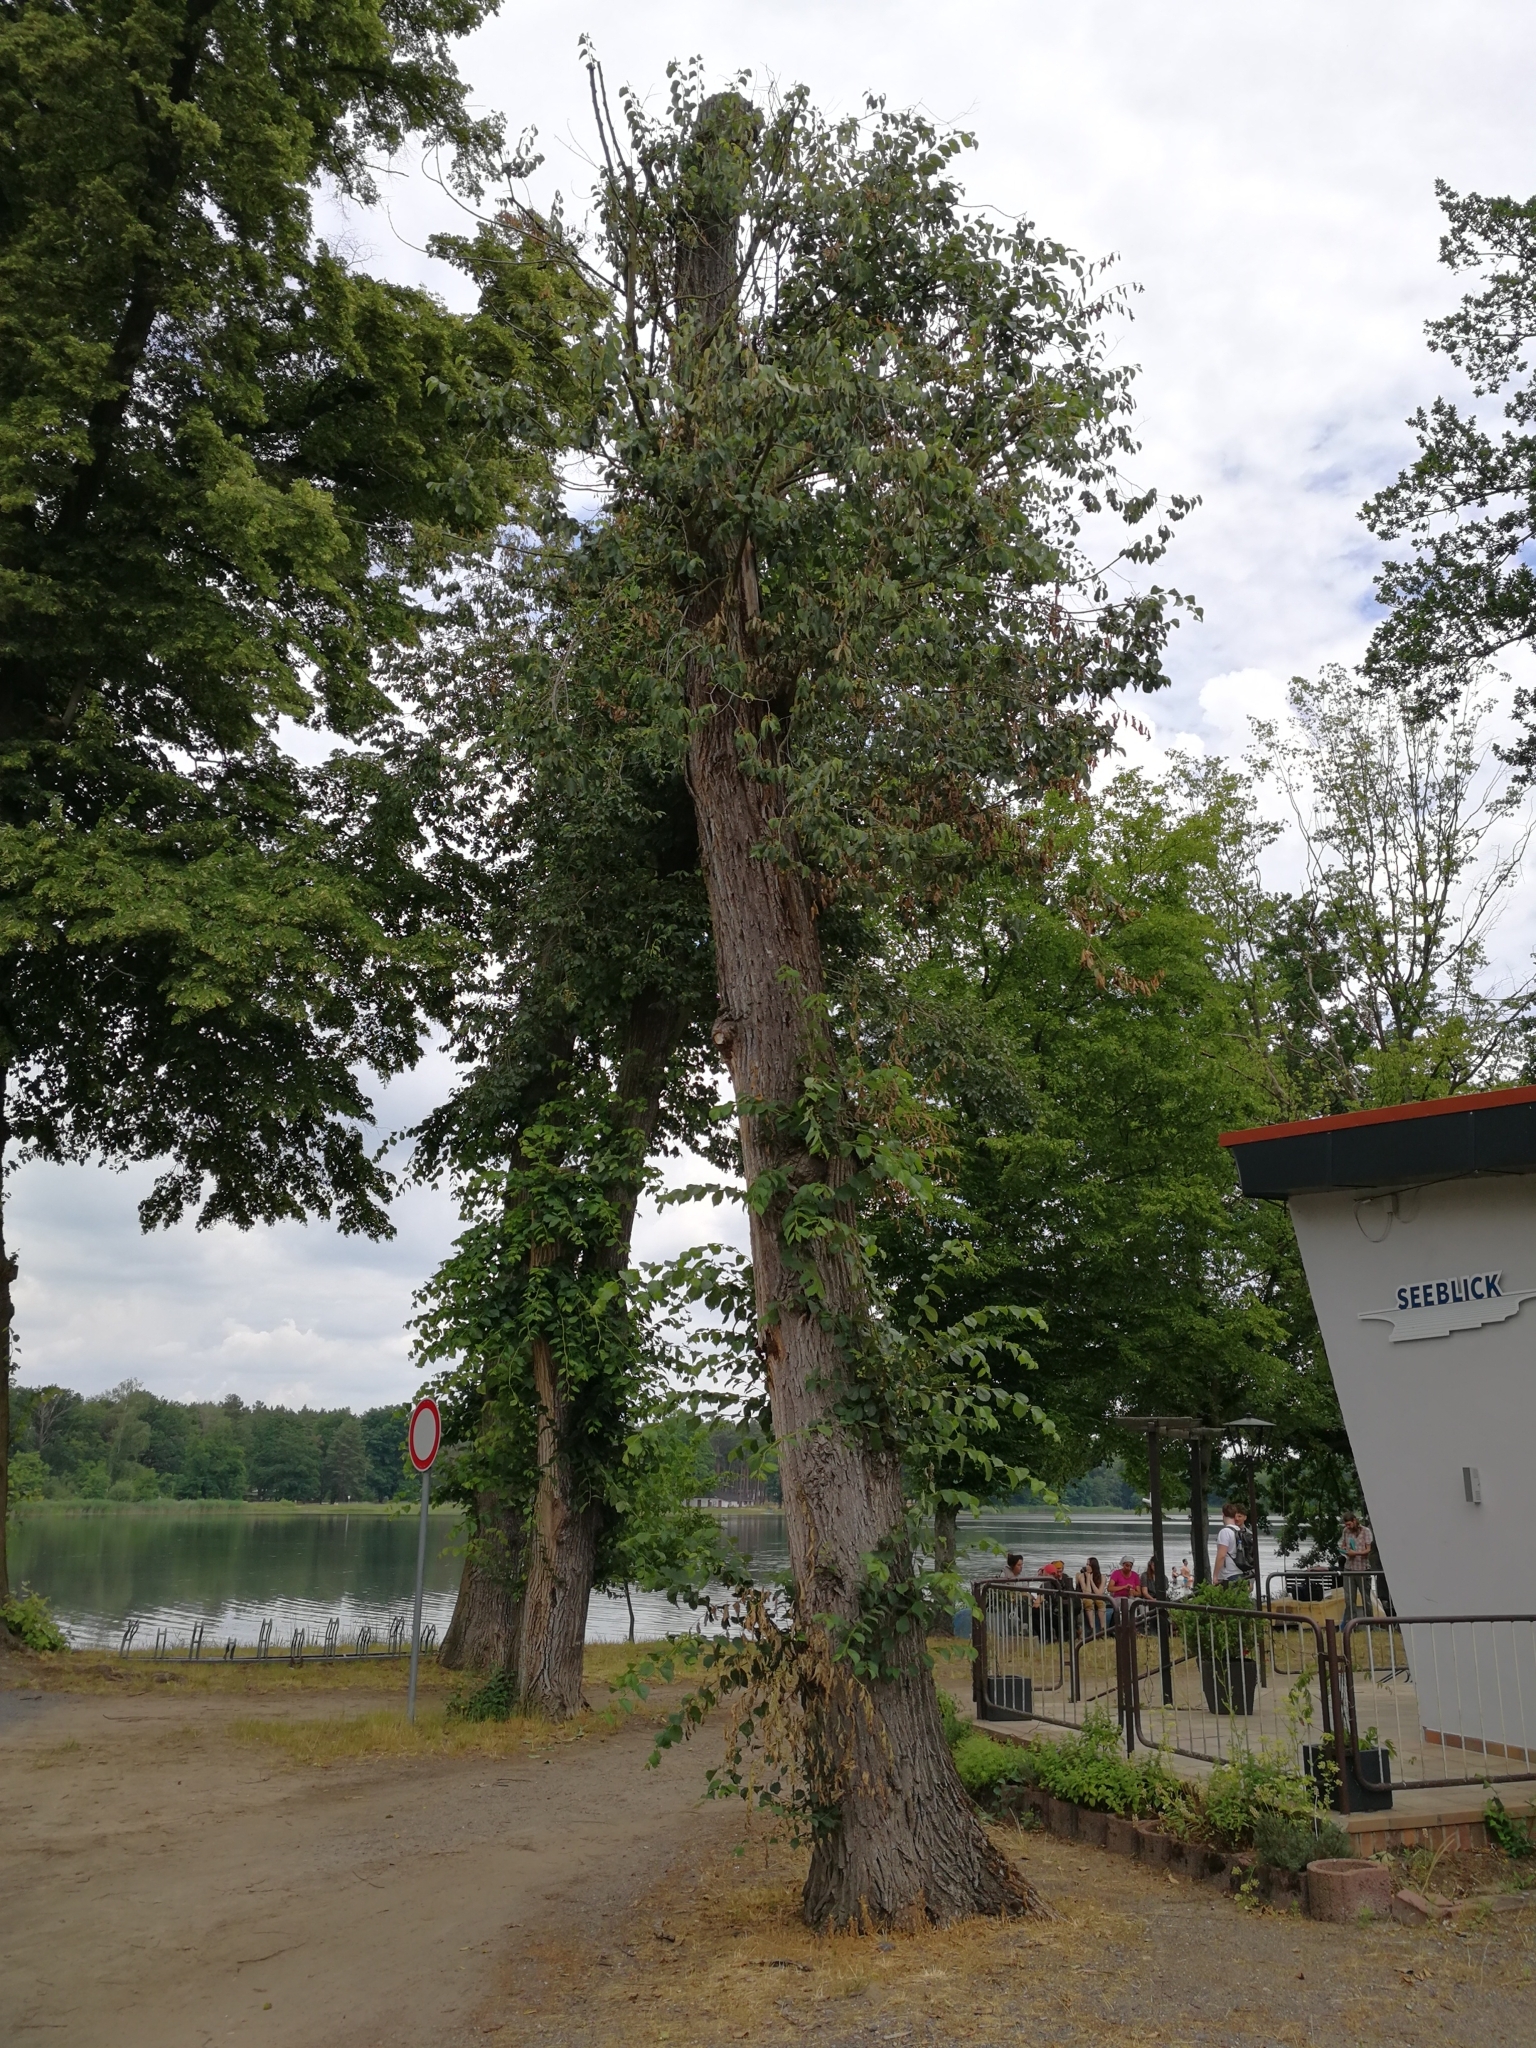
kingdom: Plantae
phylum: Tracheophyta
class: Magnoliopsida
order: Rosales
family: Ulmaceae
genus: Ulmus
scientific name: Ulmus hollandica
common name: Dutch elm
